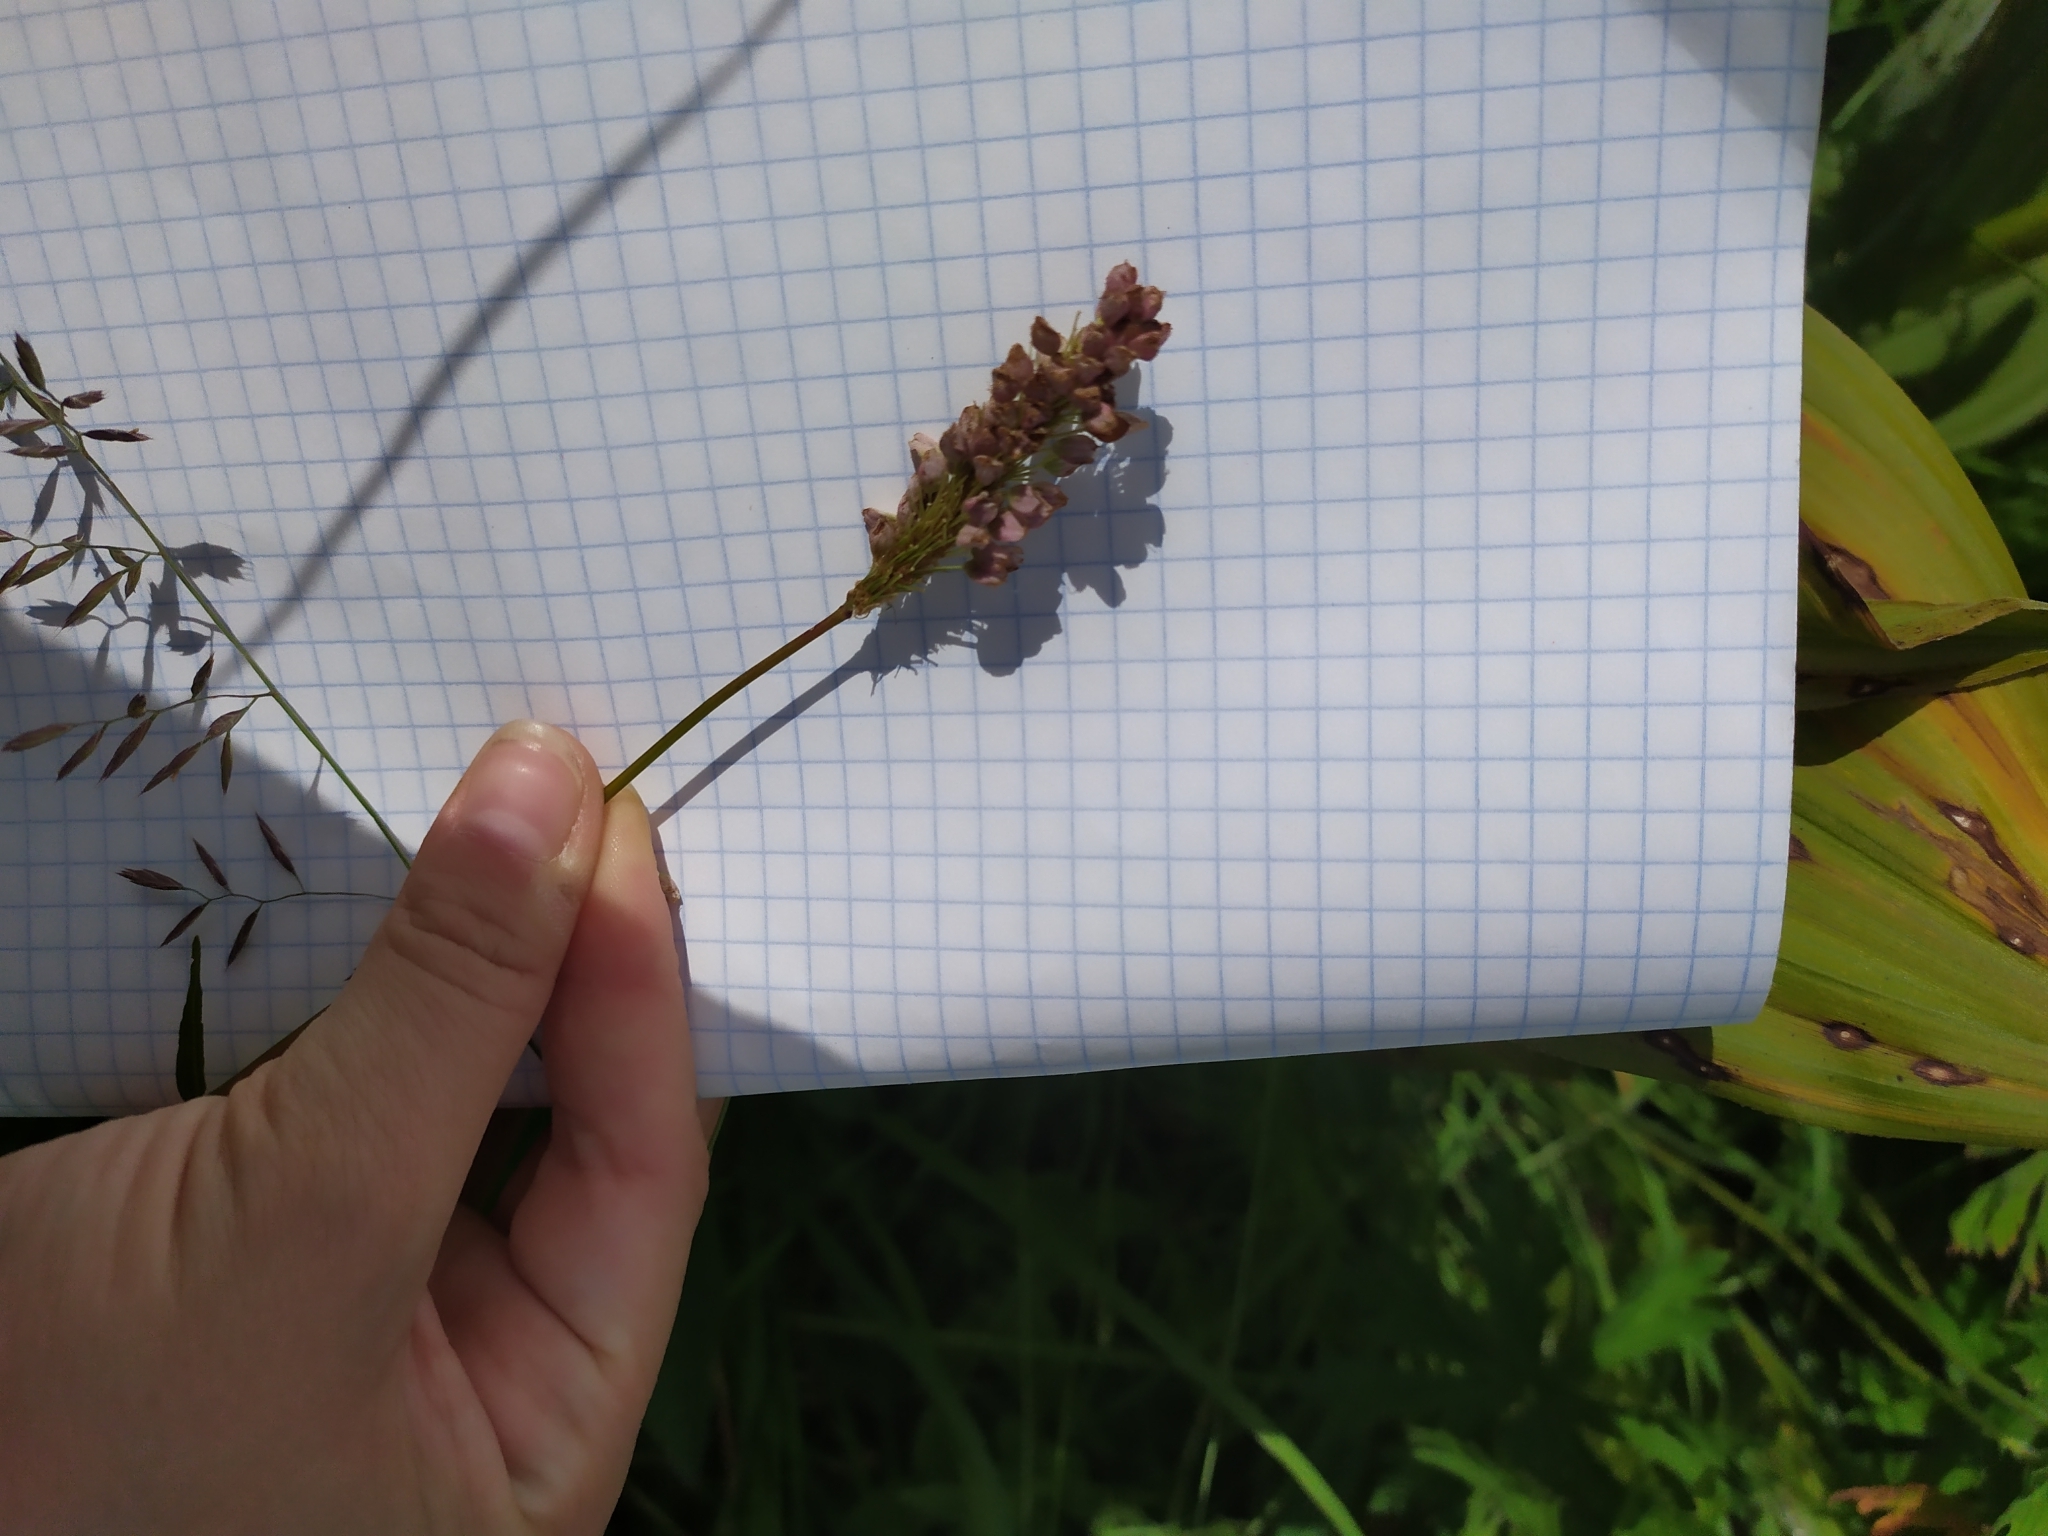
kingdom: Plantae
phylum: Tracheophyta
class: Magnoliopsida
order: Caryophyllales
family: Polygonaceae
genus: Bistorta
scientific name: Bistorta officinalis
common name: Common bistort
